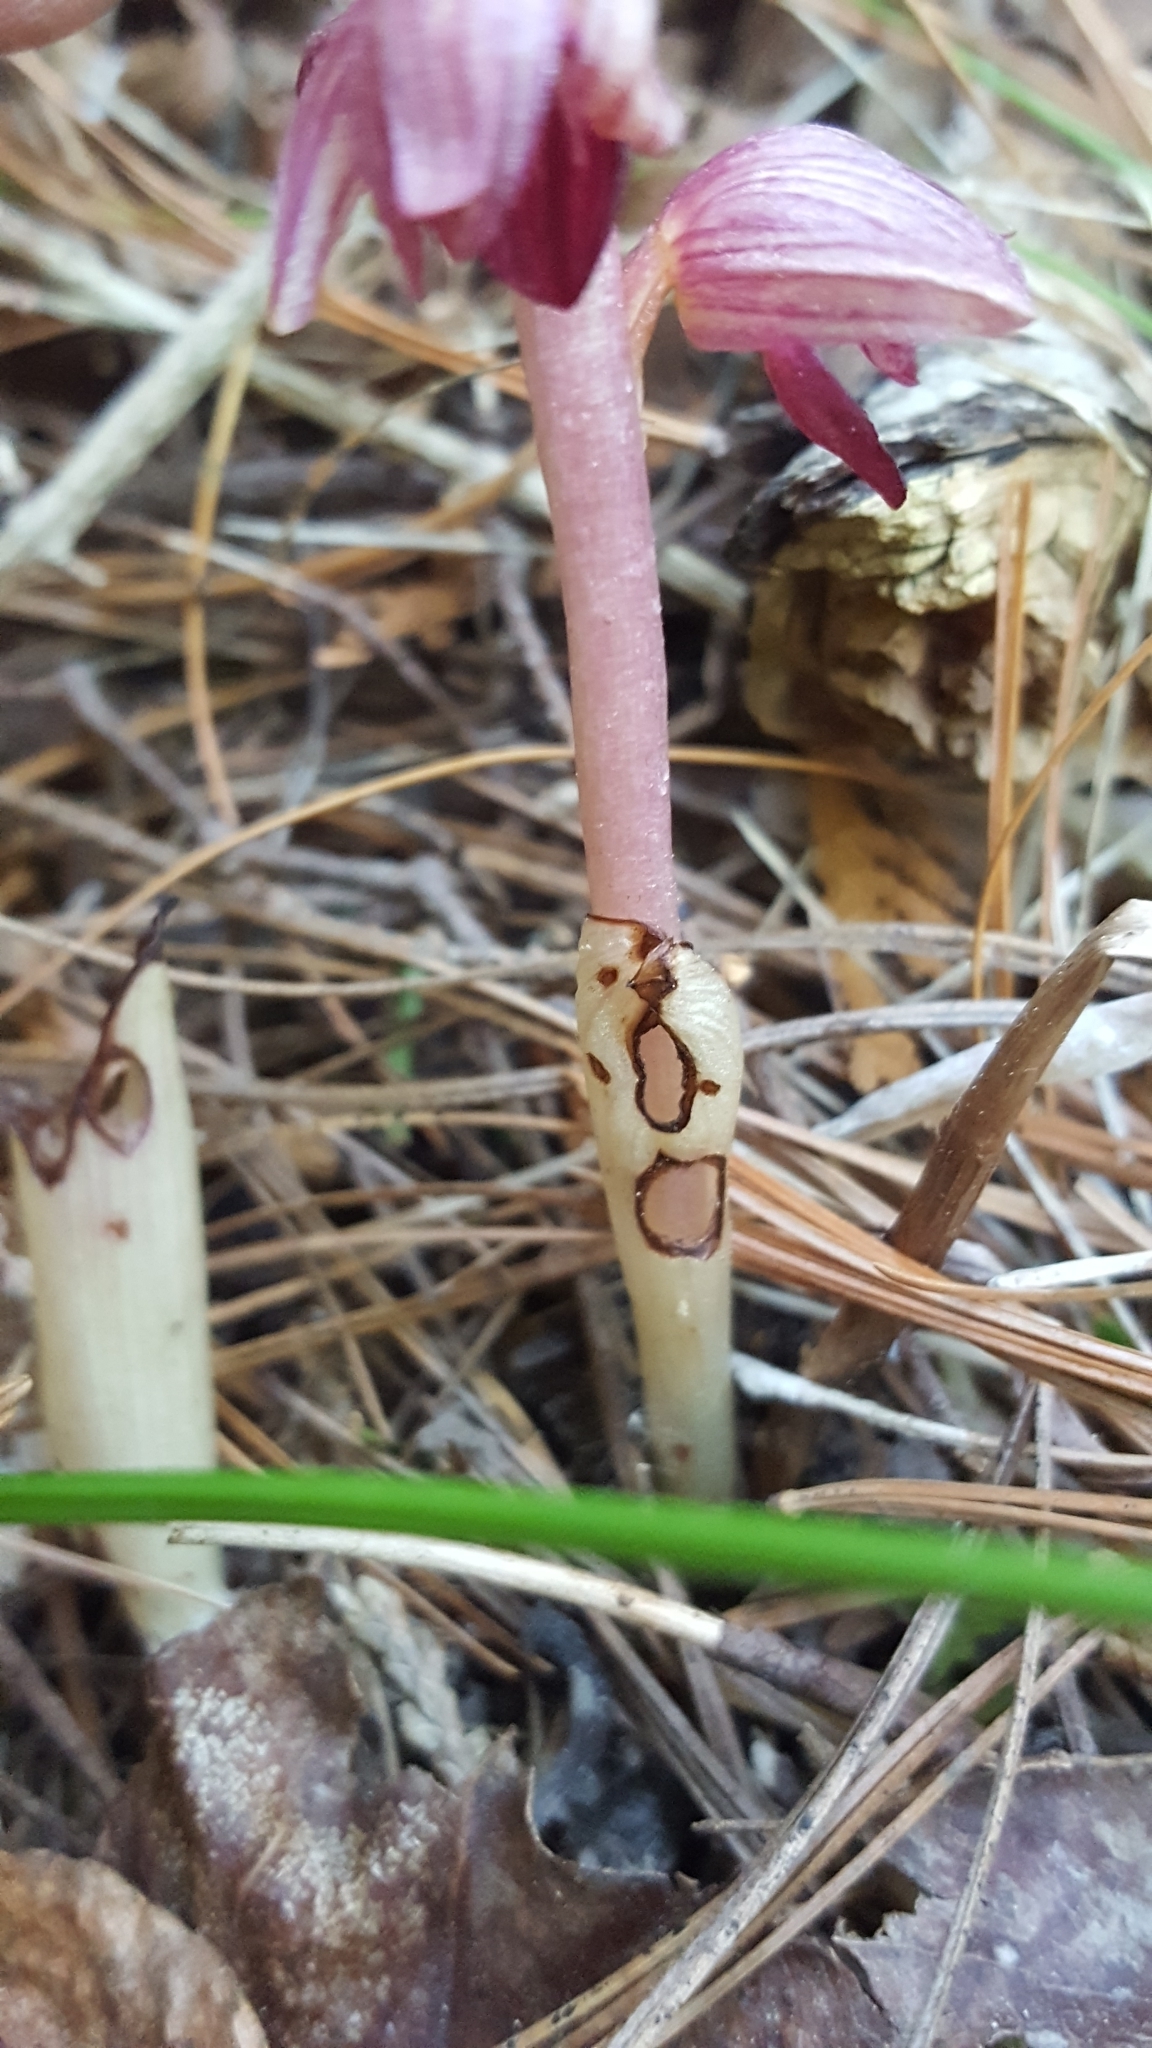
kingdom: Plantae
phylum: Tracheophyta
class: Liliopsida
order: Asparagales
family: Orchidaceae
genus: Corallorhiza
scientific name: Corallorhiza striata
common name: Hooded coralroot
